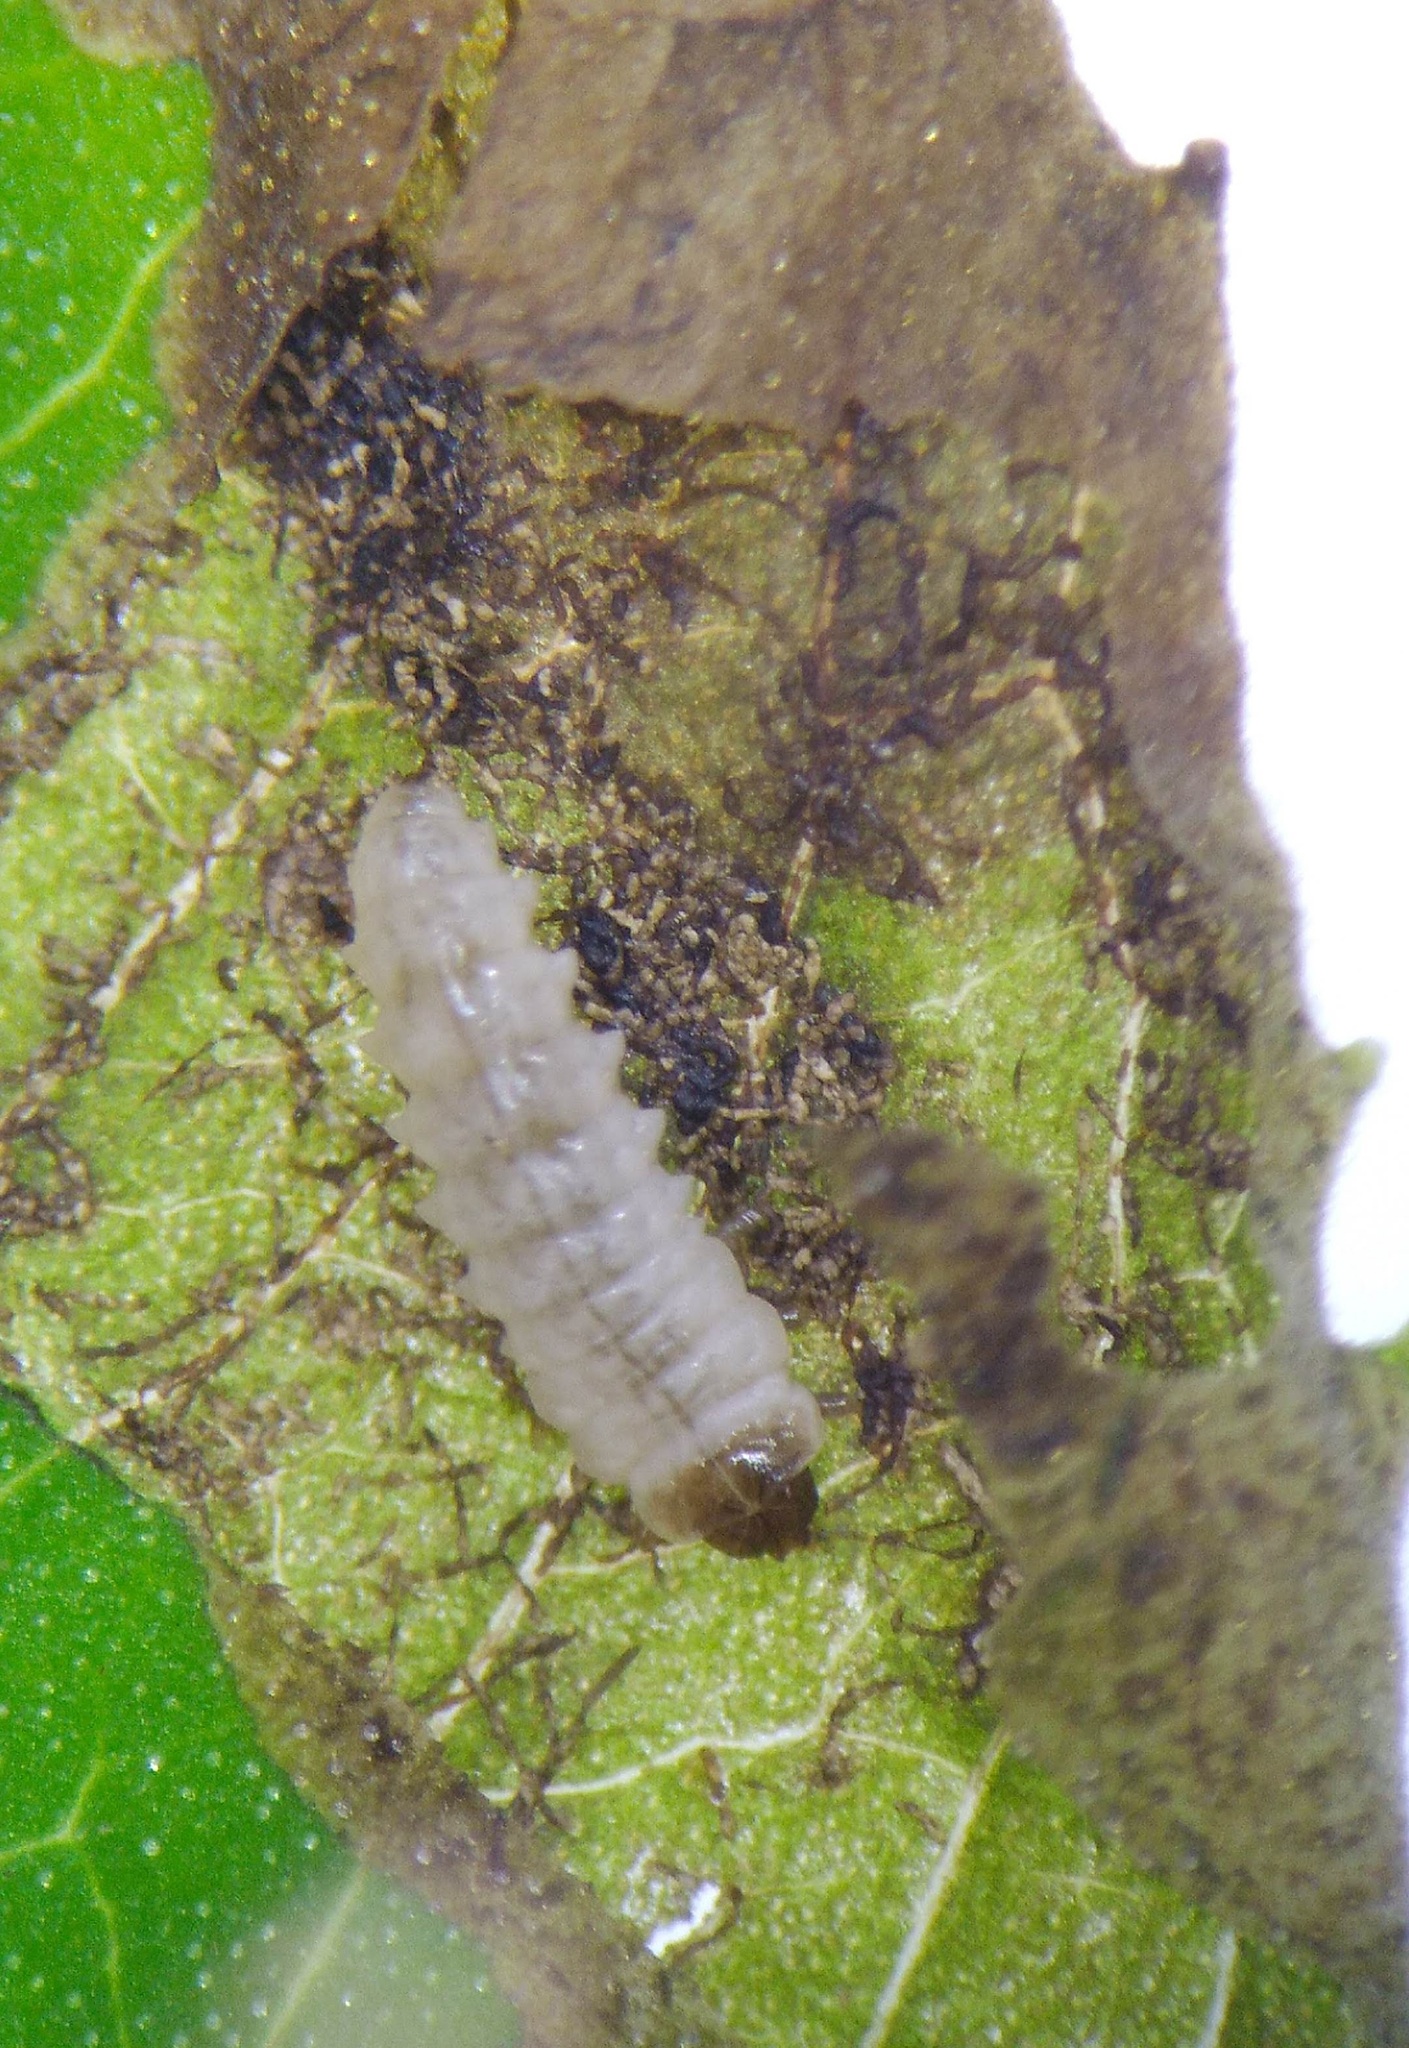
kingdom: Animalia
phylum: Arthropoda
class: Insecta
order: Coleoptera
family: Chrysomelidae
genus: Sumitrosis
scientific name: Sumitrosis inaequalis
